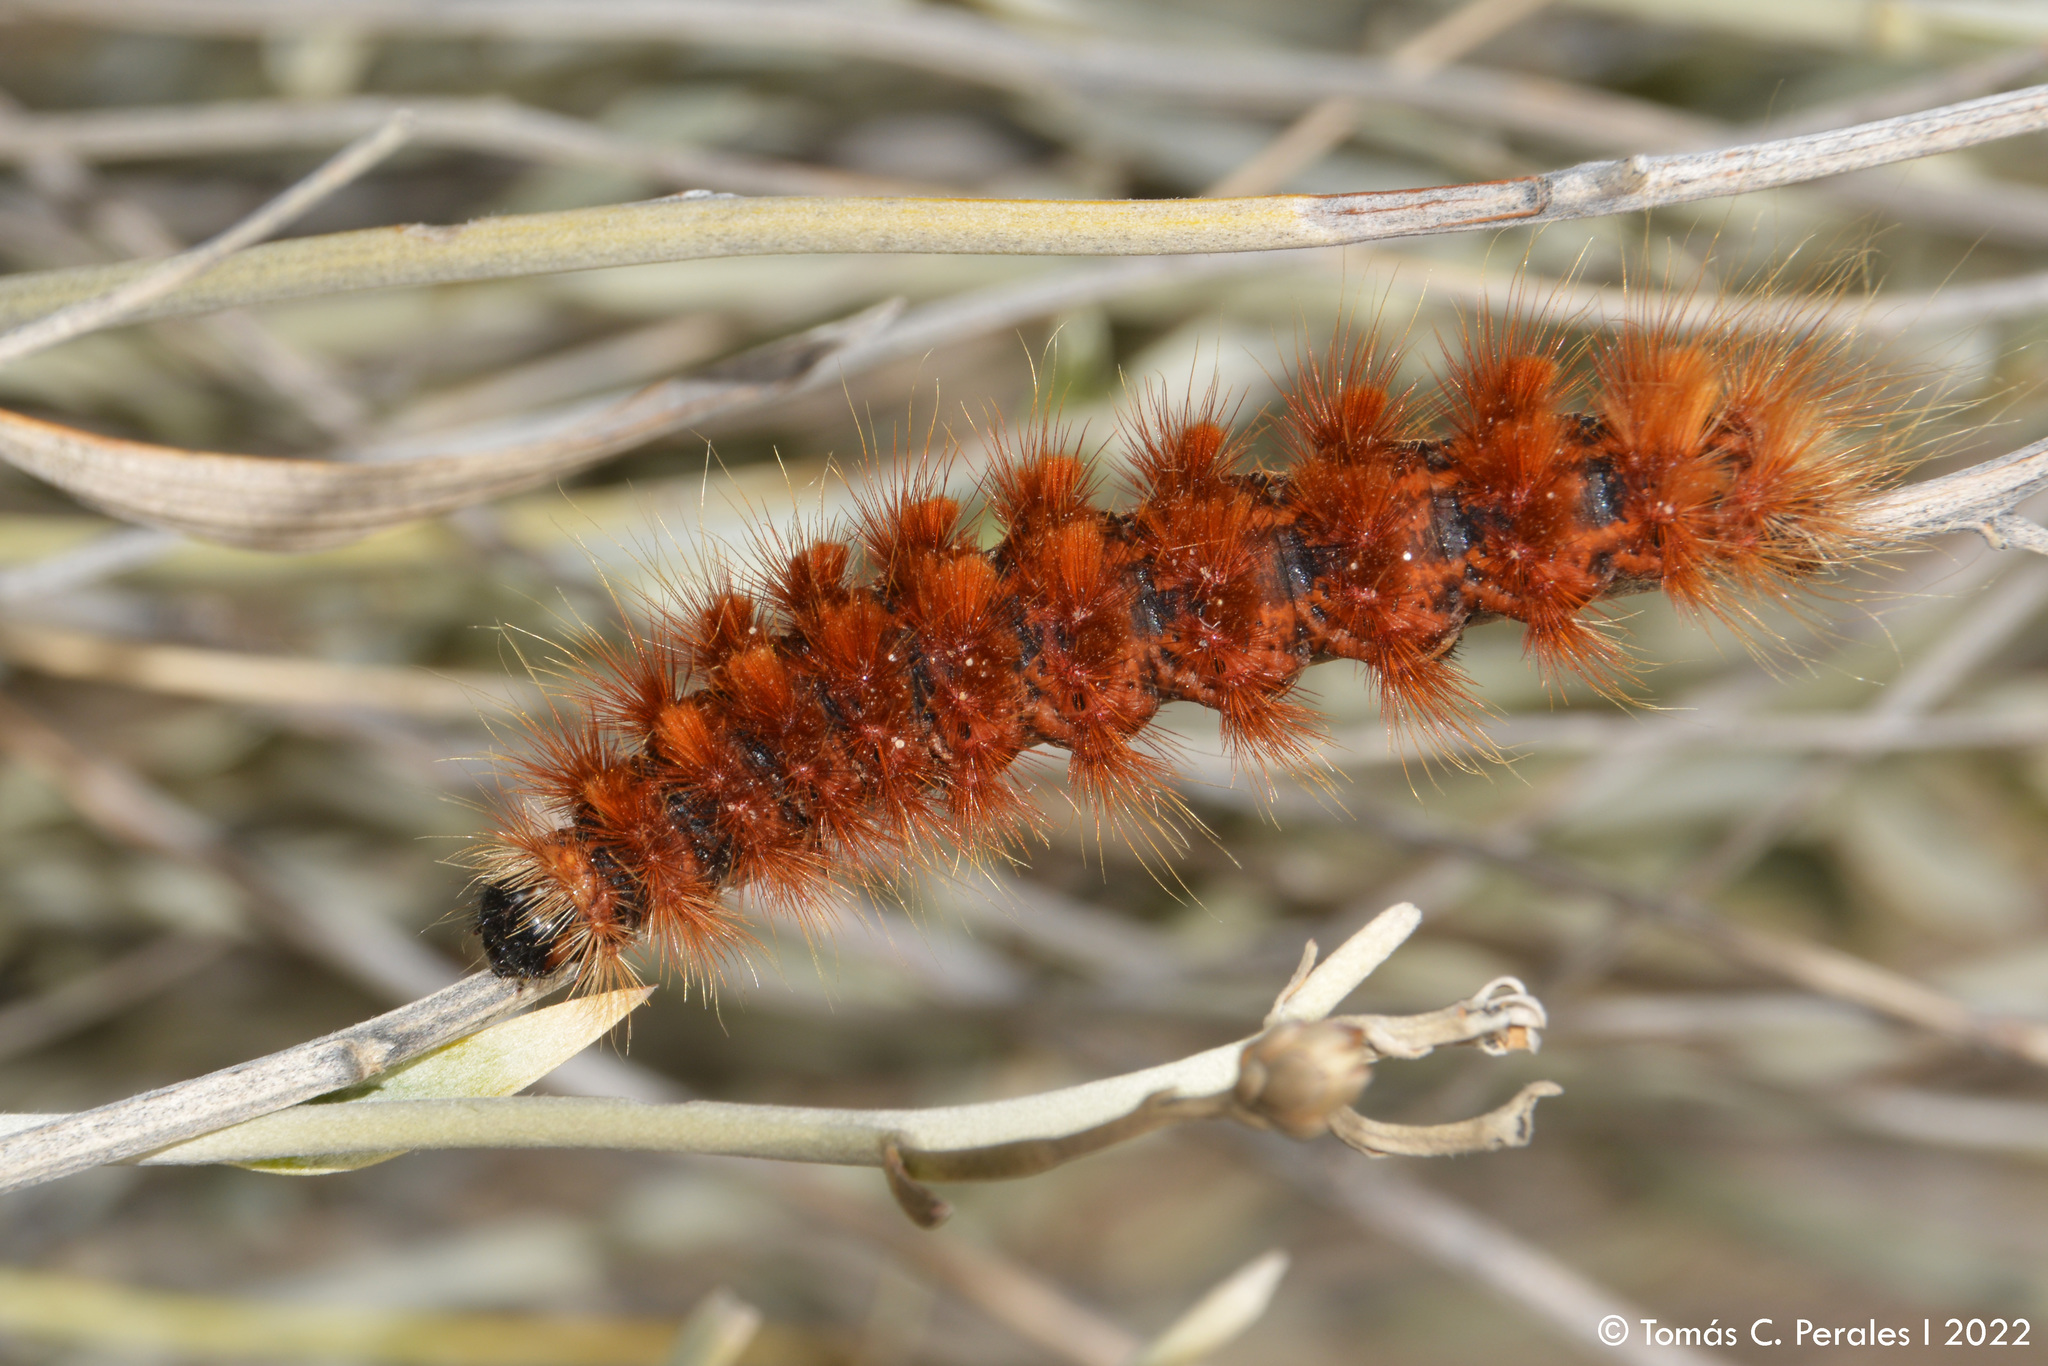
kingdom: Animalia
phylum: Arthropoda
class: Insecta
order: Lepidoptera
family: Erebidae
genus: Paracles
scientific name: Paracles severa
